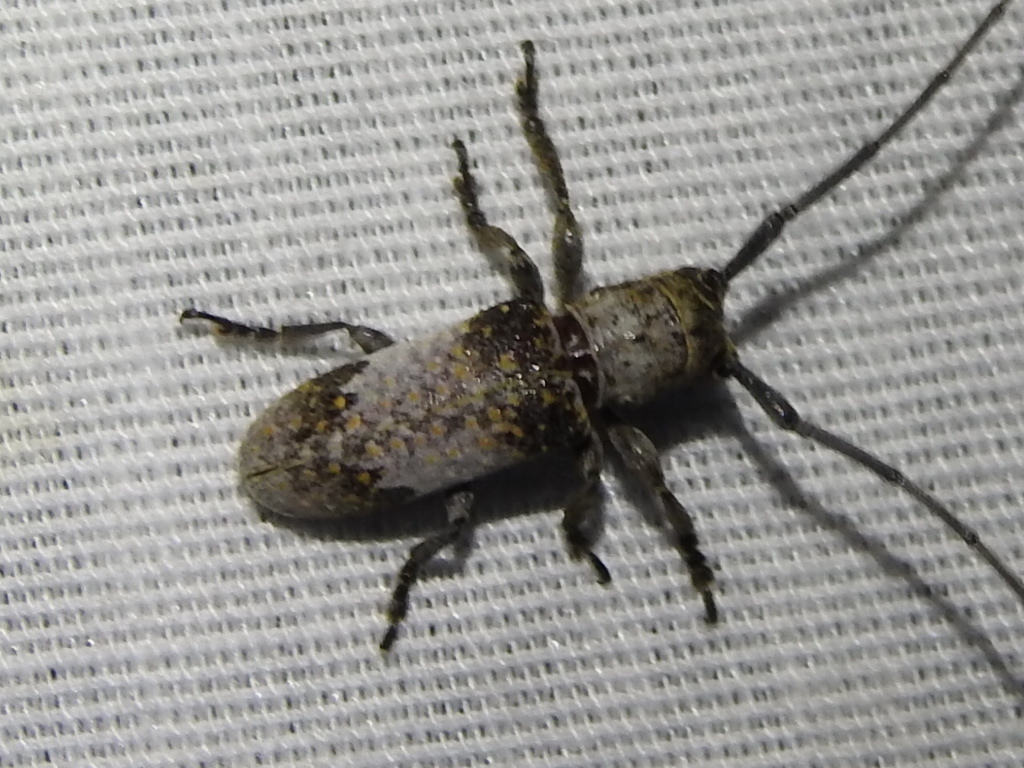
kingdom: Animalia
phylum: Arthropoda
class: Insecta
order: Coleoptera
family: Cerambycidae
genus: Oncideres
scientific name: Oncideres cingulata
